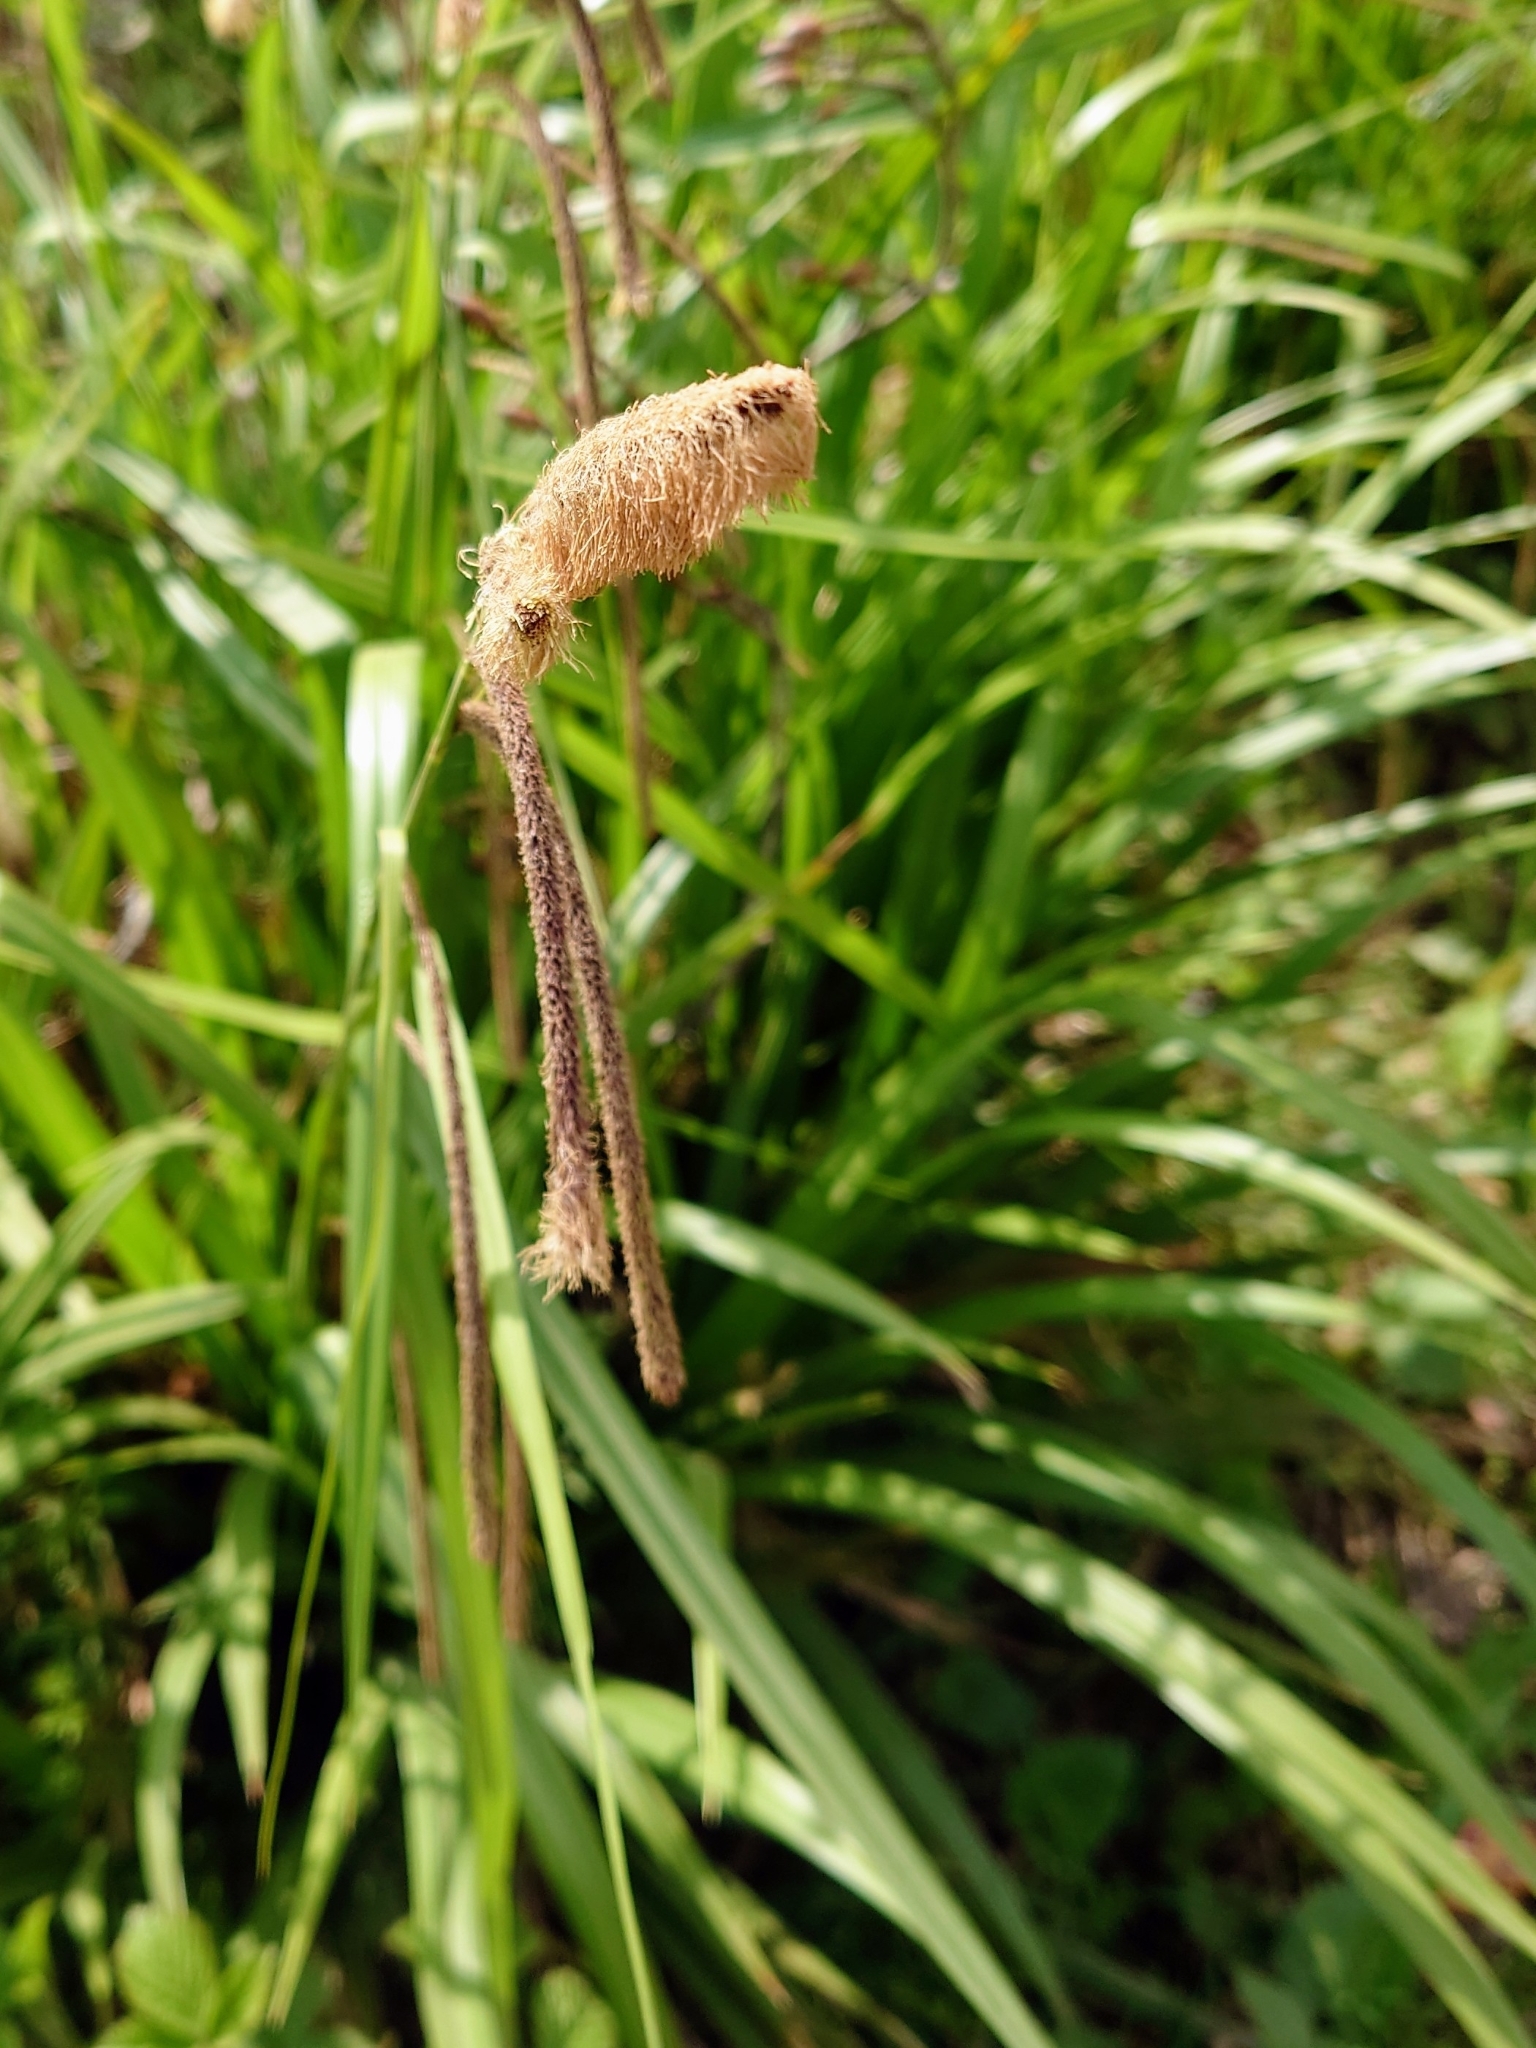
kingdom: Plantae
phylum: Tracheophyta
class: Liliopsida
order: Poales
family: Cyperaceae
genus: Carex
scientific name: Carex pendula
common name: Pendulous sedge
